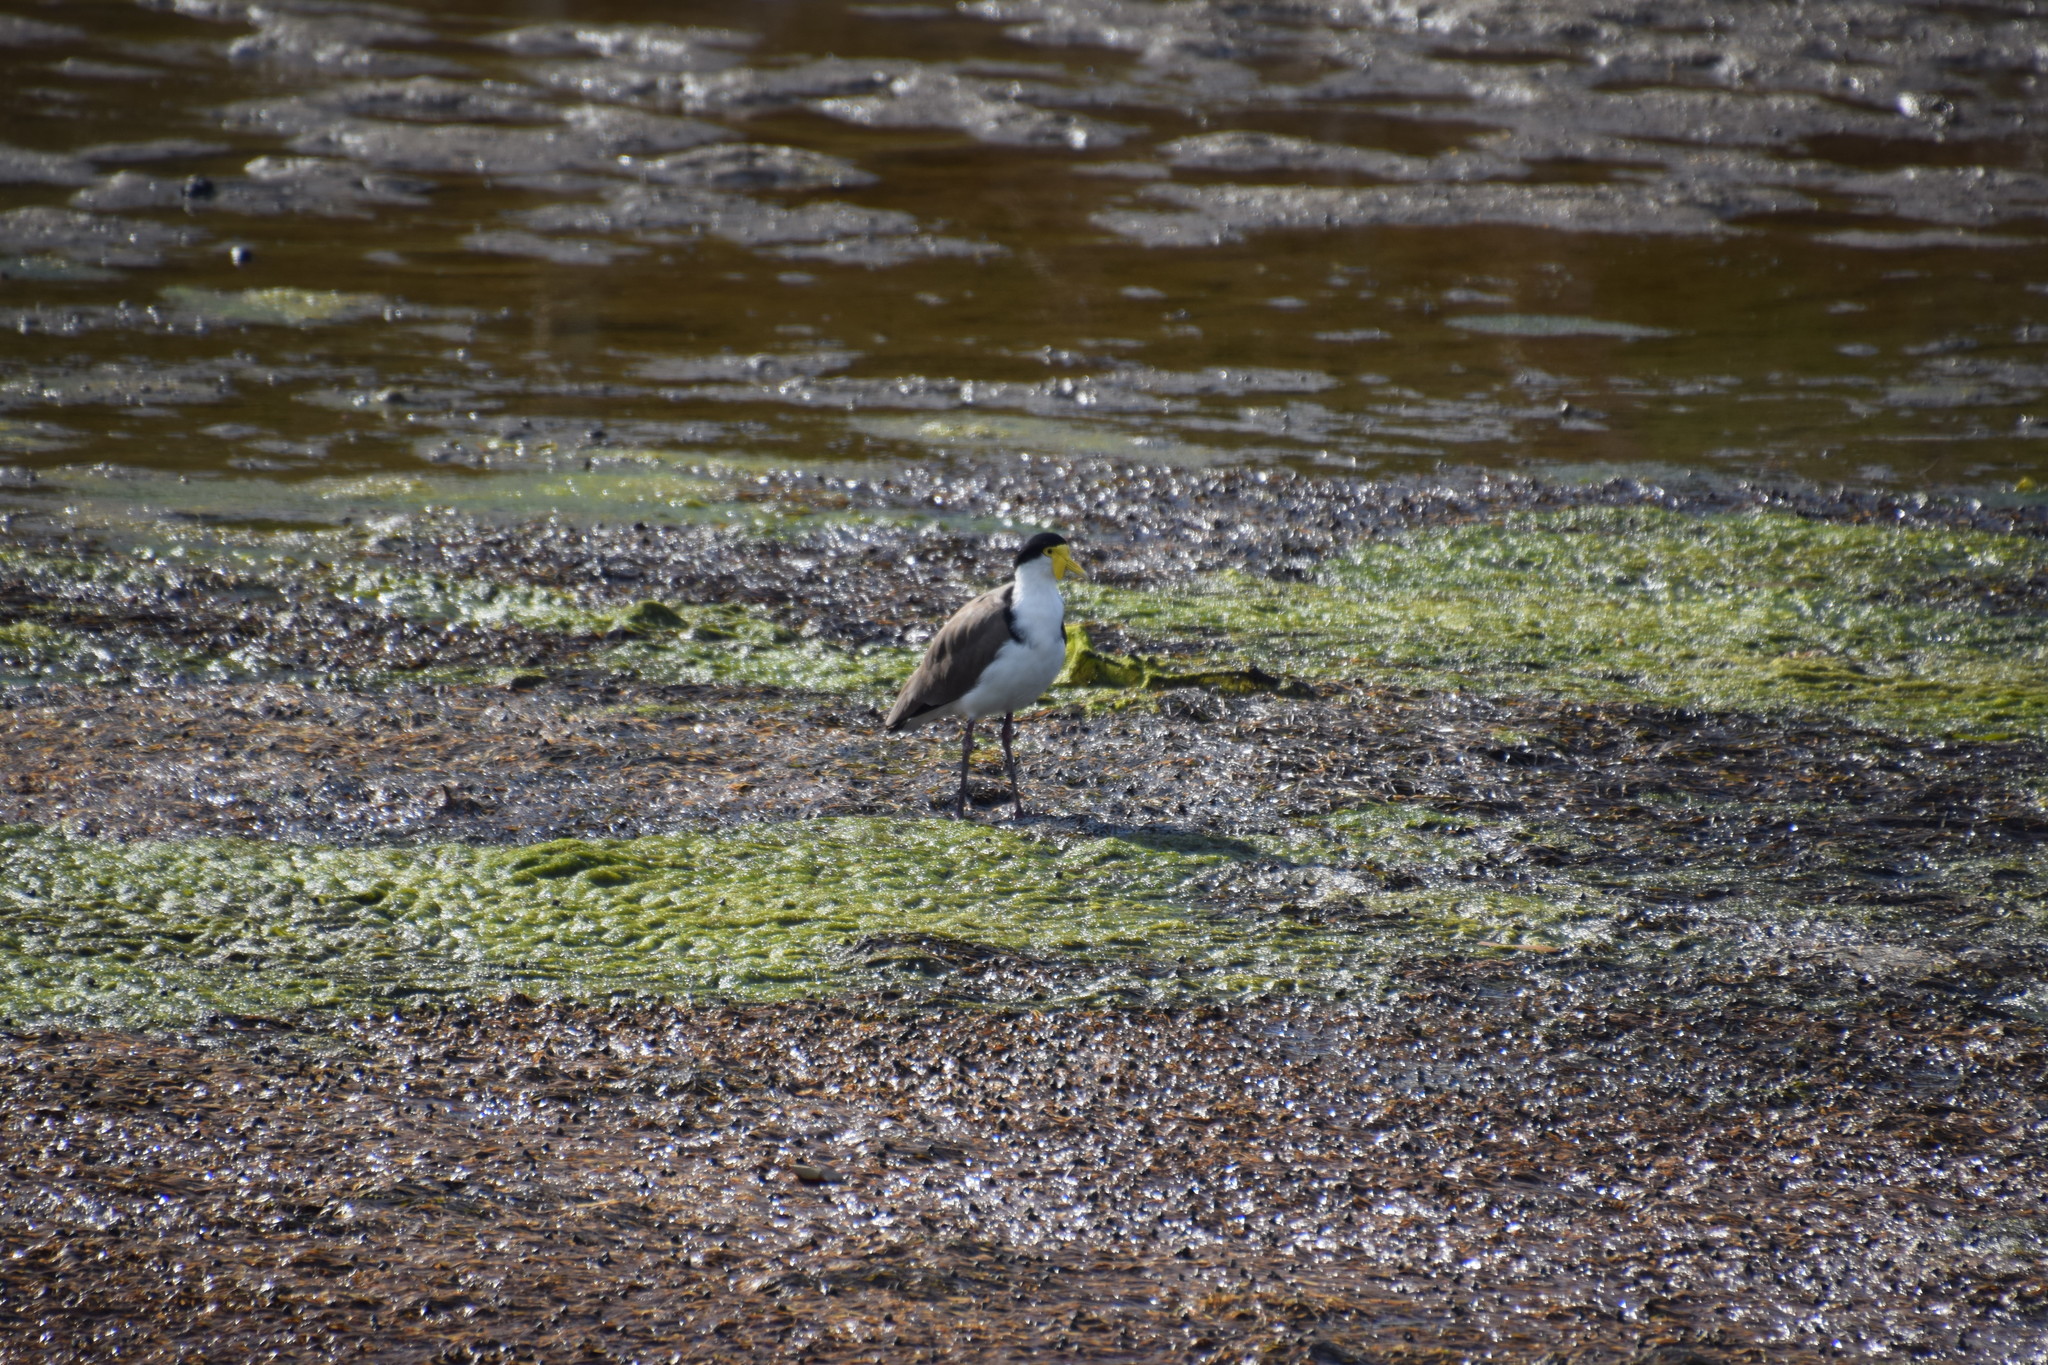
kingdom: Animalia
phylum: Chordata
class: Aves
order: Charadriiformes
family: Charadriidae
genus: Vanellus
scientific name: Vanellus miles
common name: Masked lapwing
